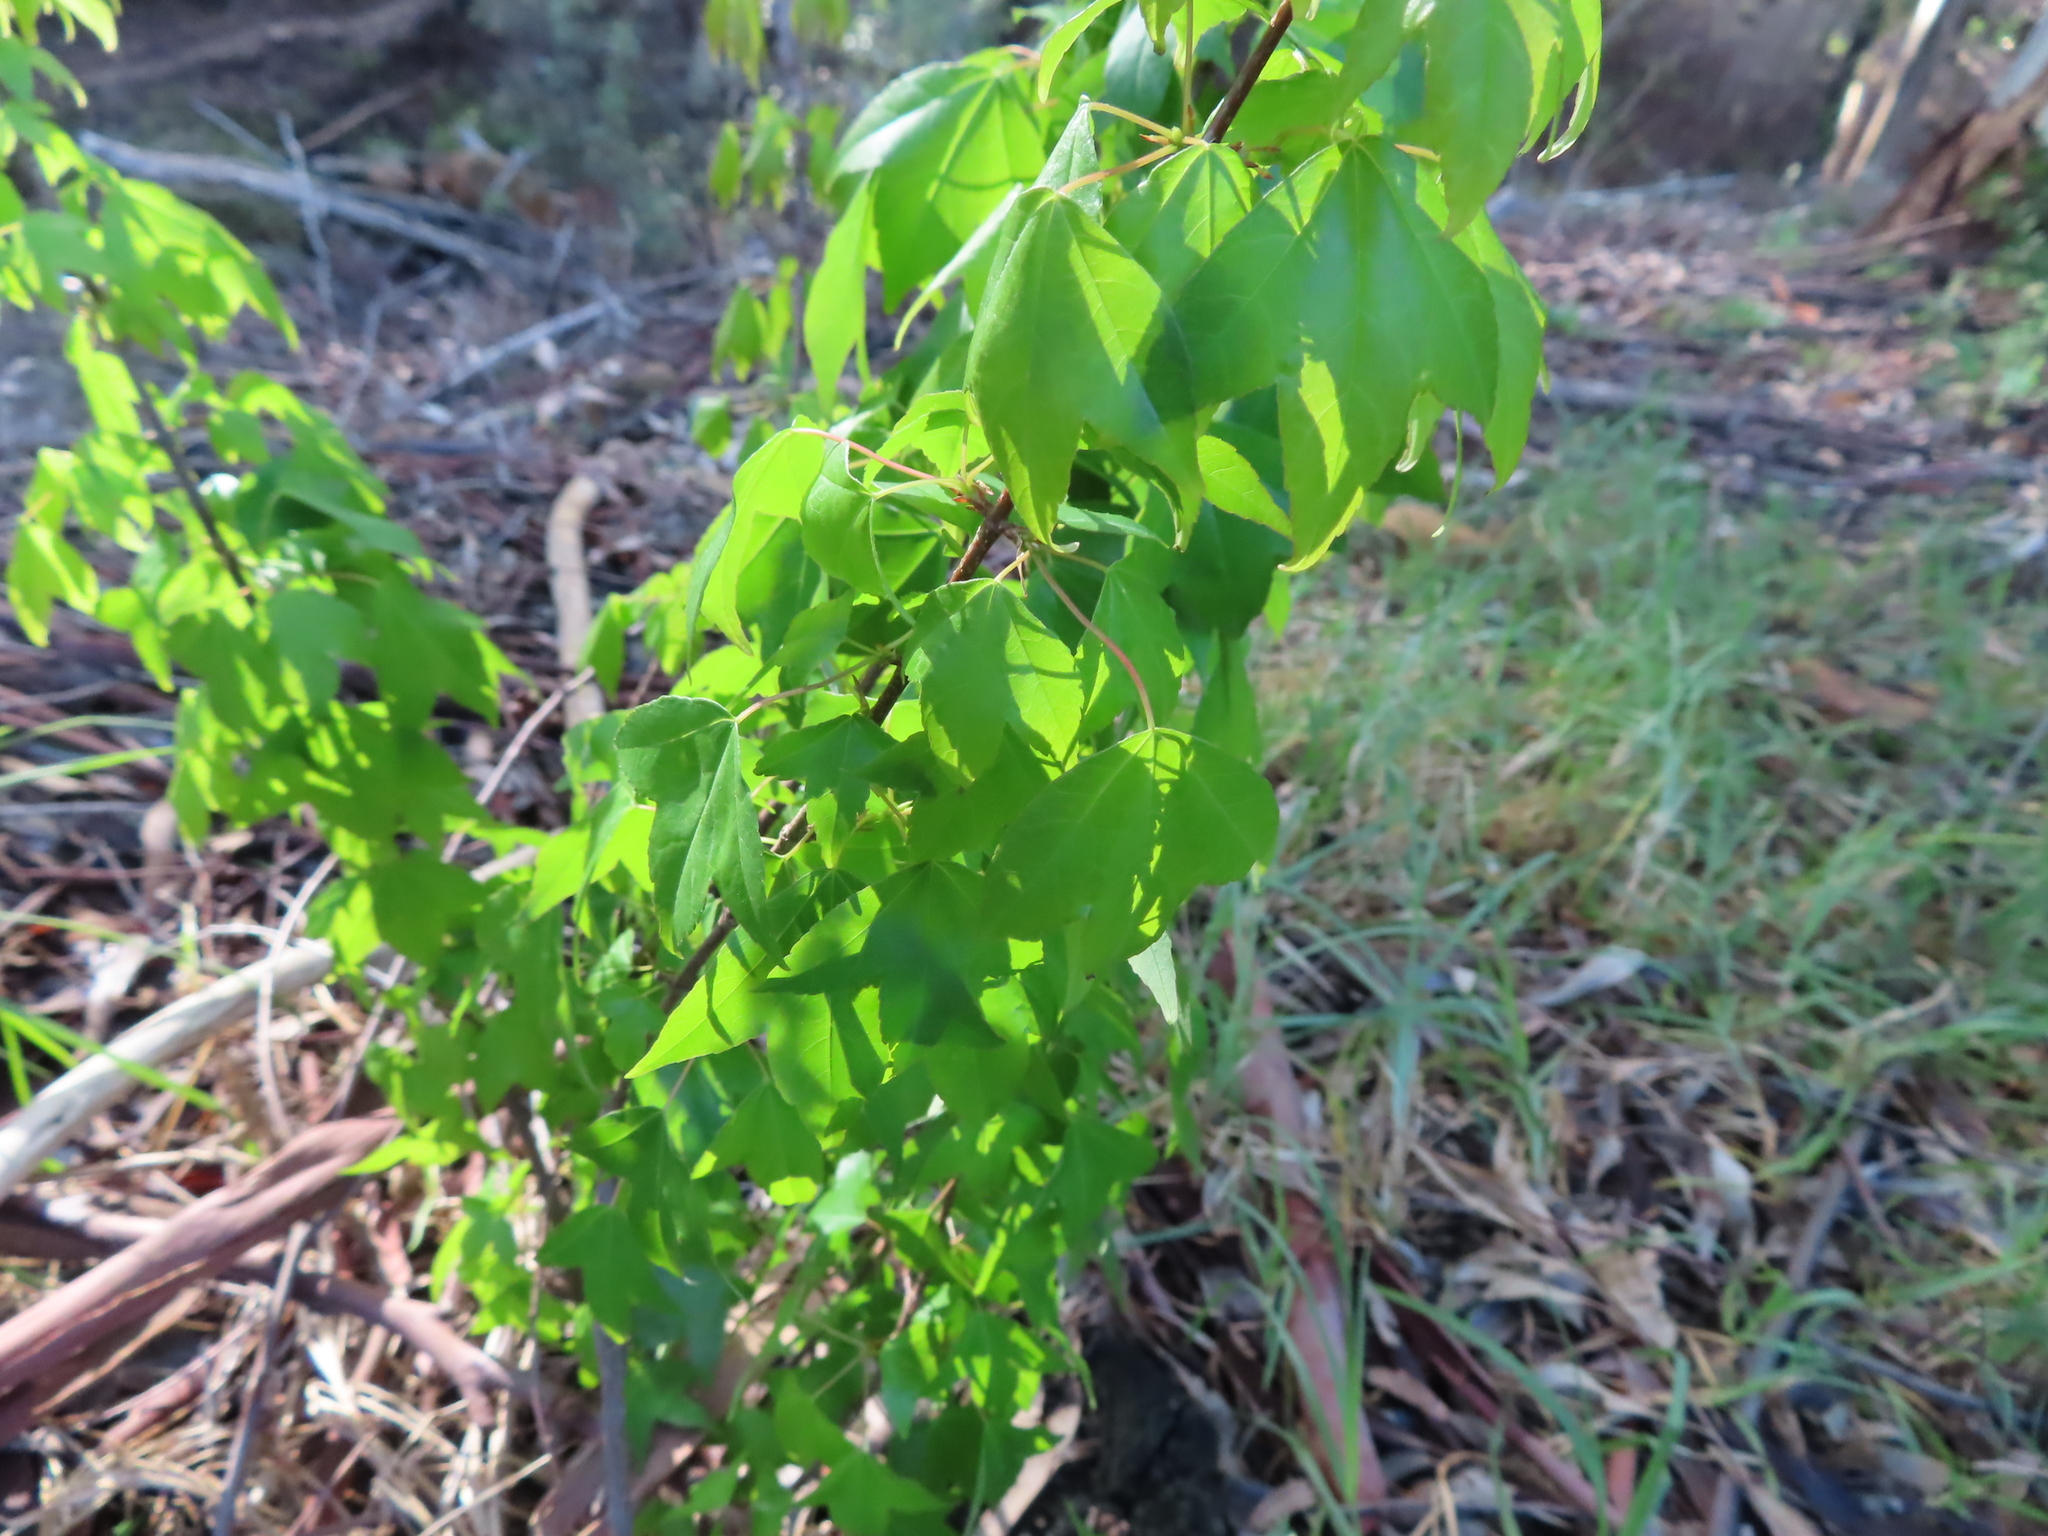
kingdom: Plantae
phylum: Tracheophyta
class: Magnoliopsida
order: Sapindales
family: Sapindaceae
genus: Acer
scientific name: Acer buergerianum
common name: Trident maple
